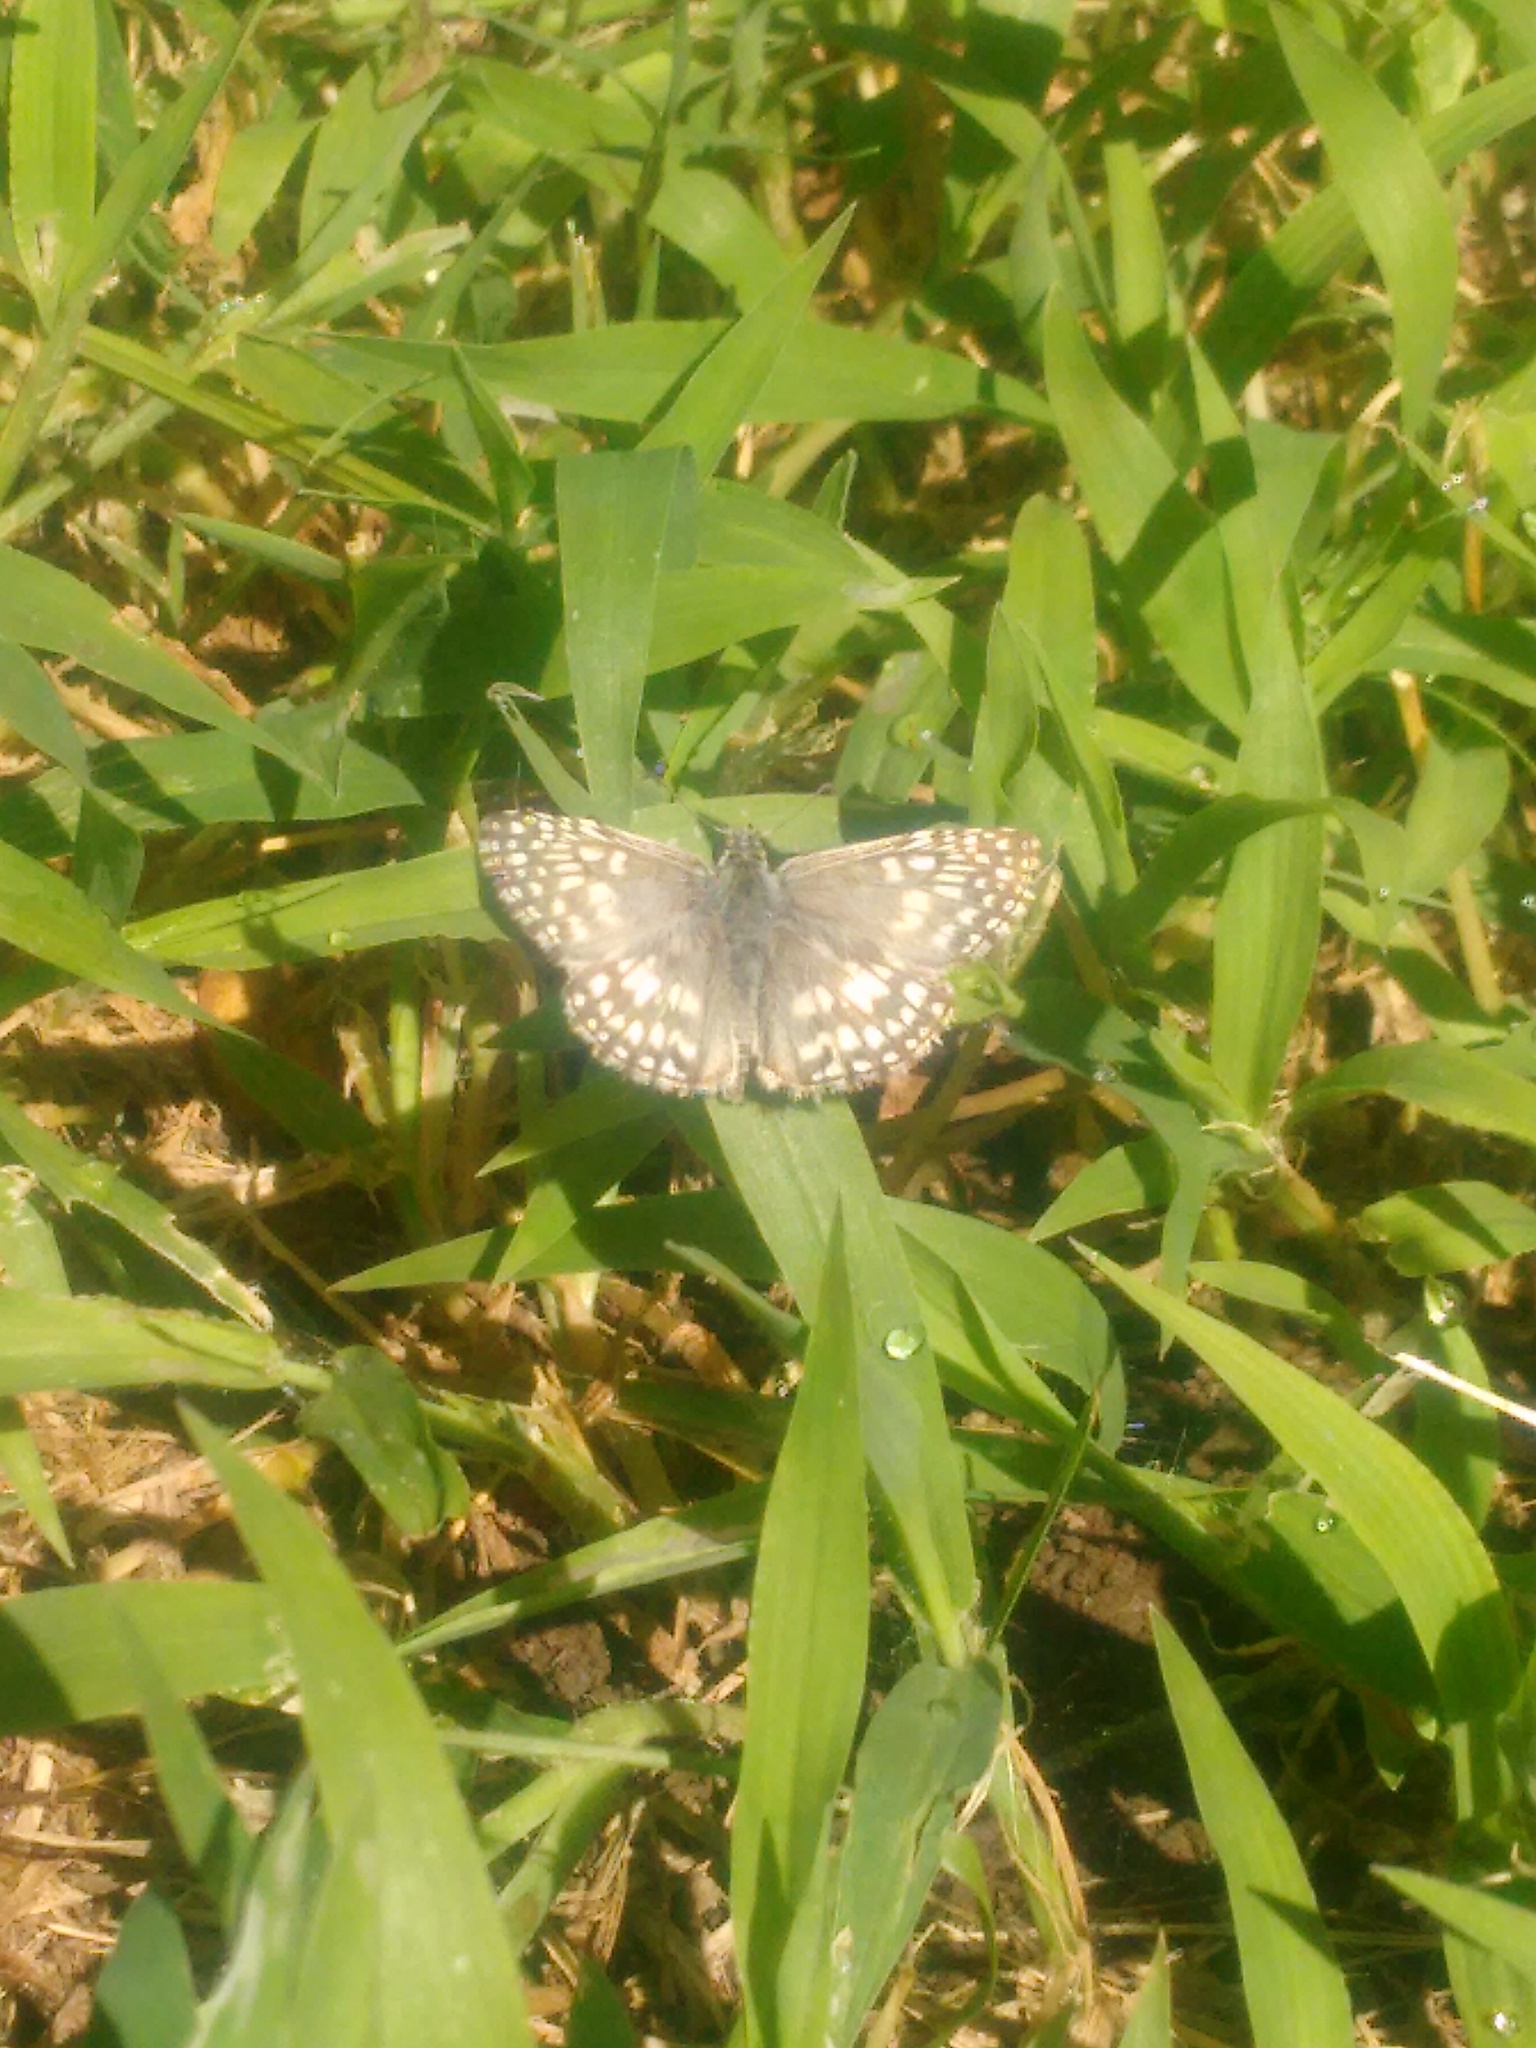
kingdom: Animalia
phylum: Arthropoda
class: Insecta
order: Lepidoptera
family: Hesperiidae
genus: Pyrgus
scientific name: Pyrgus oileus
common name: Tropical checkered-skipper
